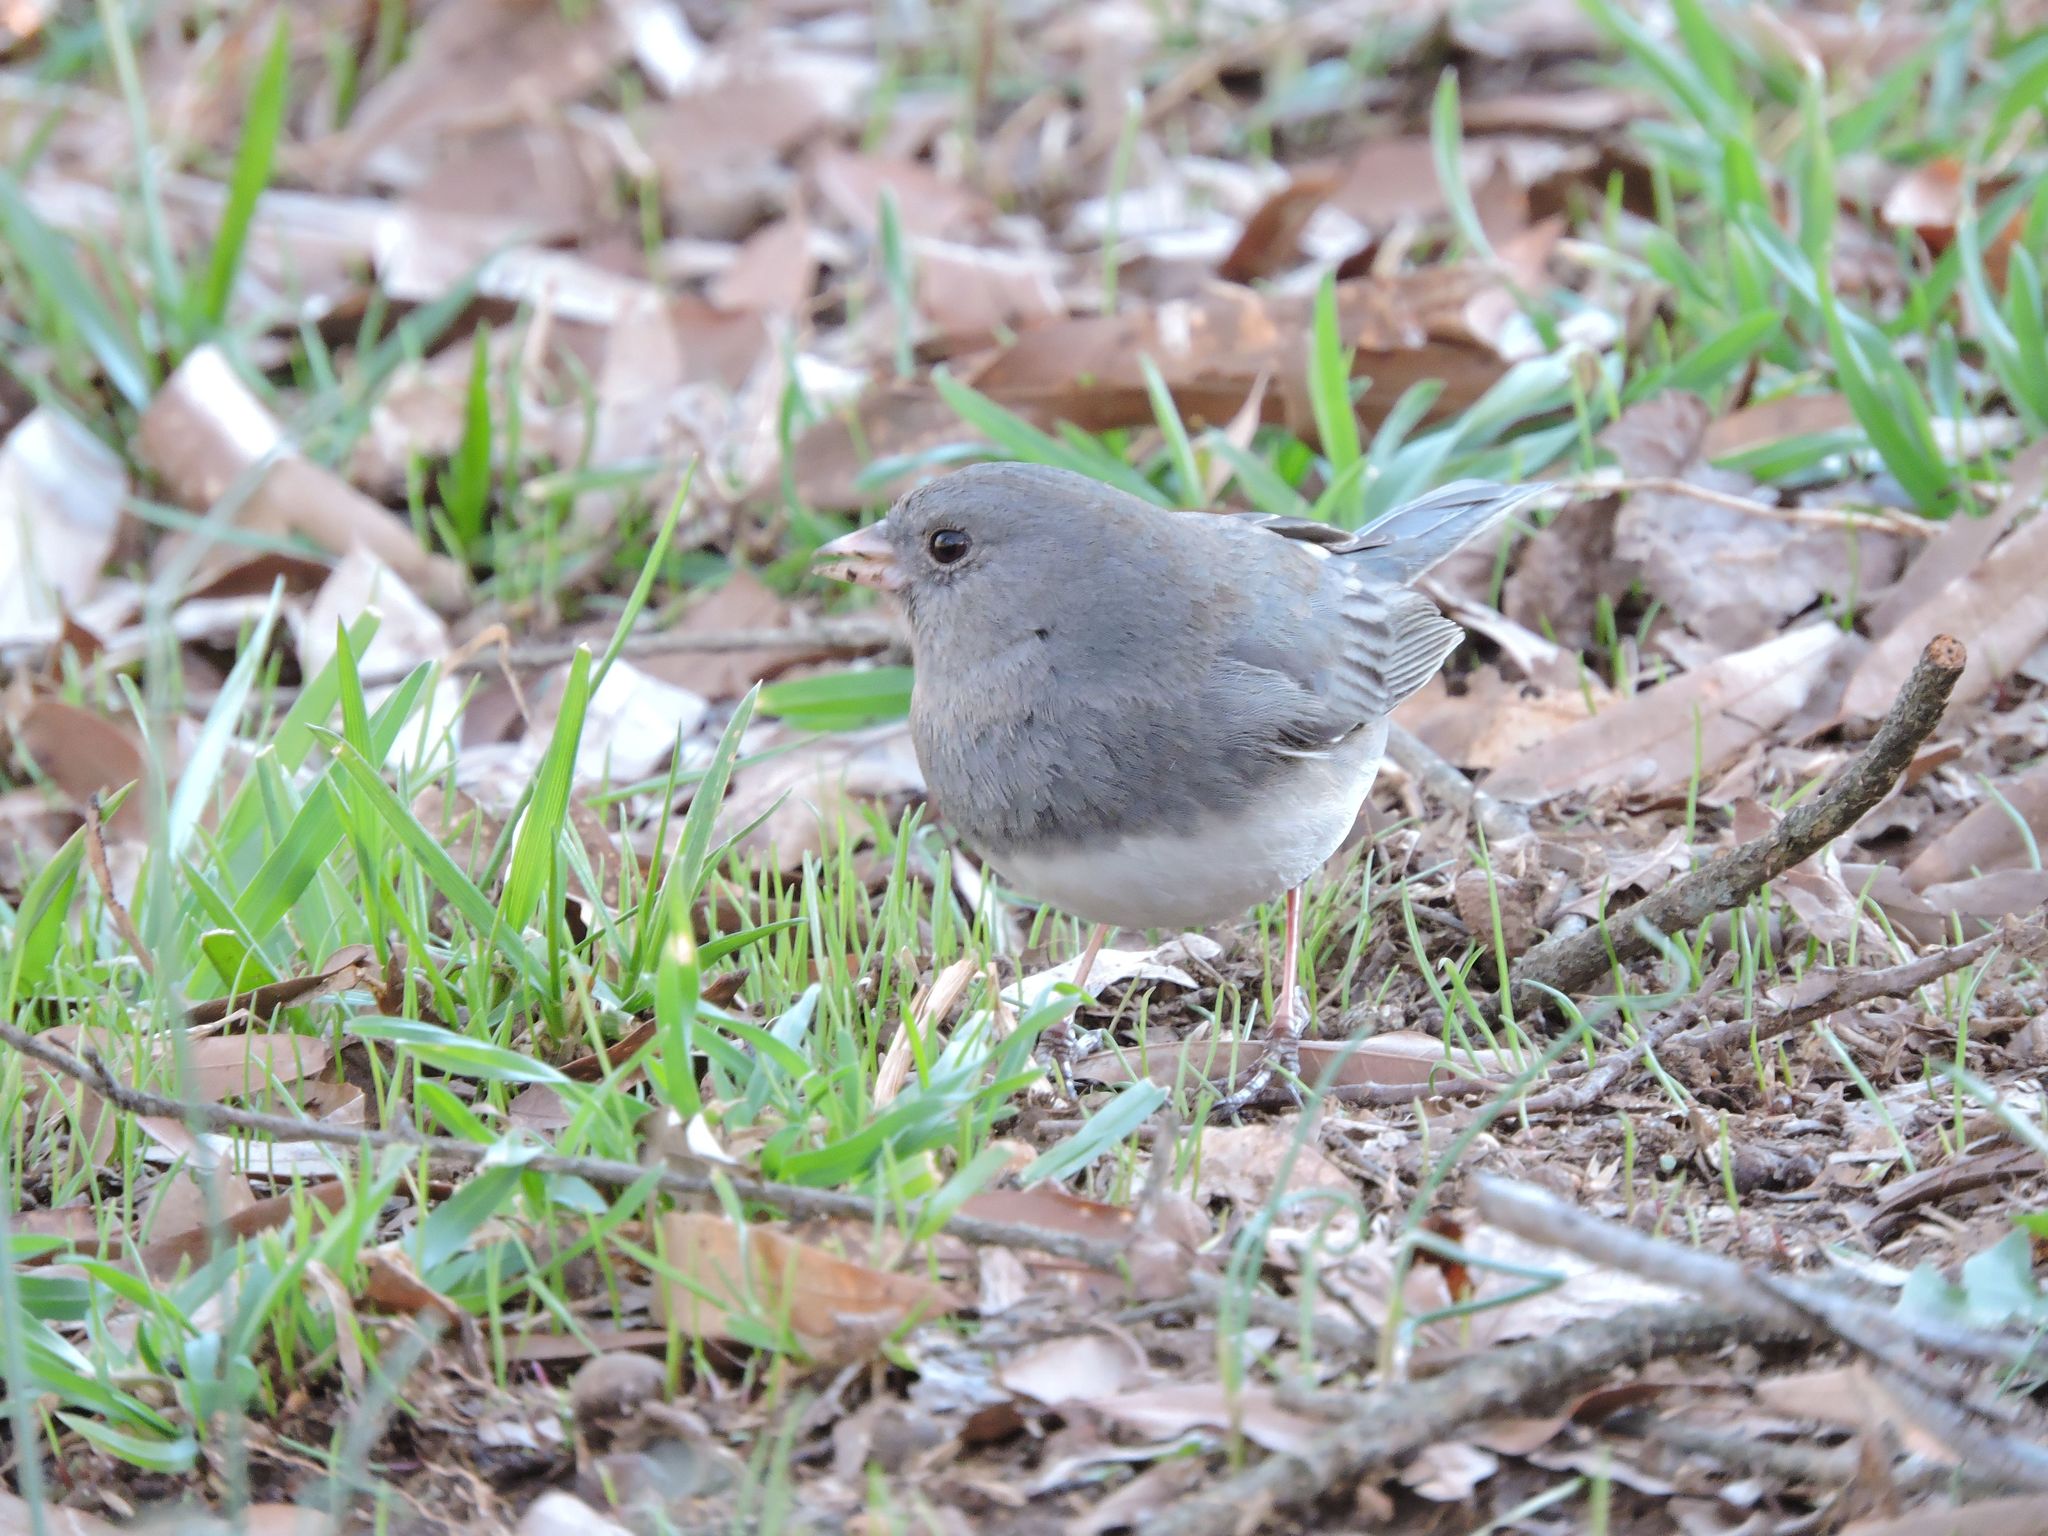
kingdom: Animalia
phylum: Chordata
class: Aves
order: Passeriformes
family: Passerellidae
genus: Junco
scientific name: Junco hyemalis
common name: Dark-eyed junco
